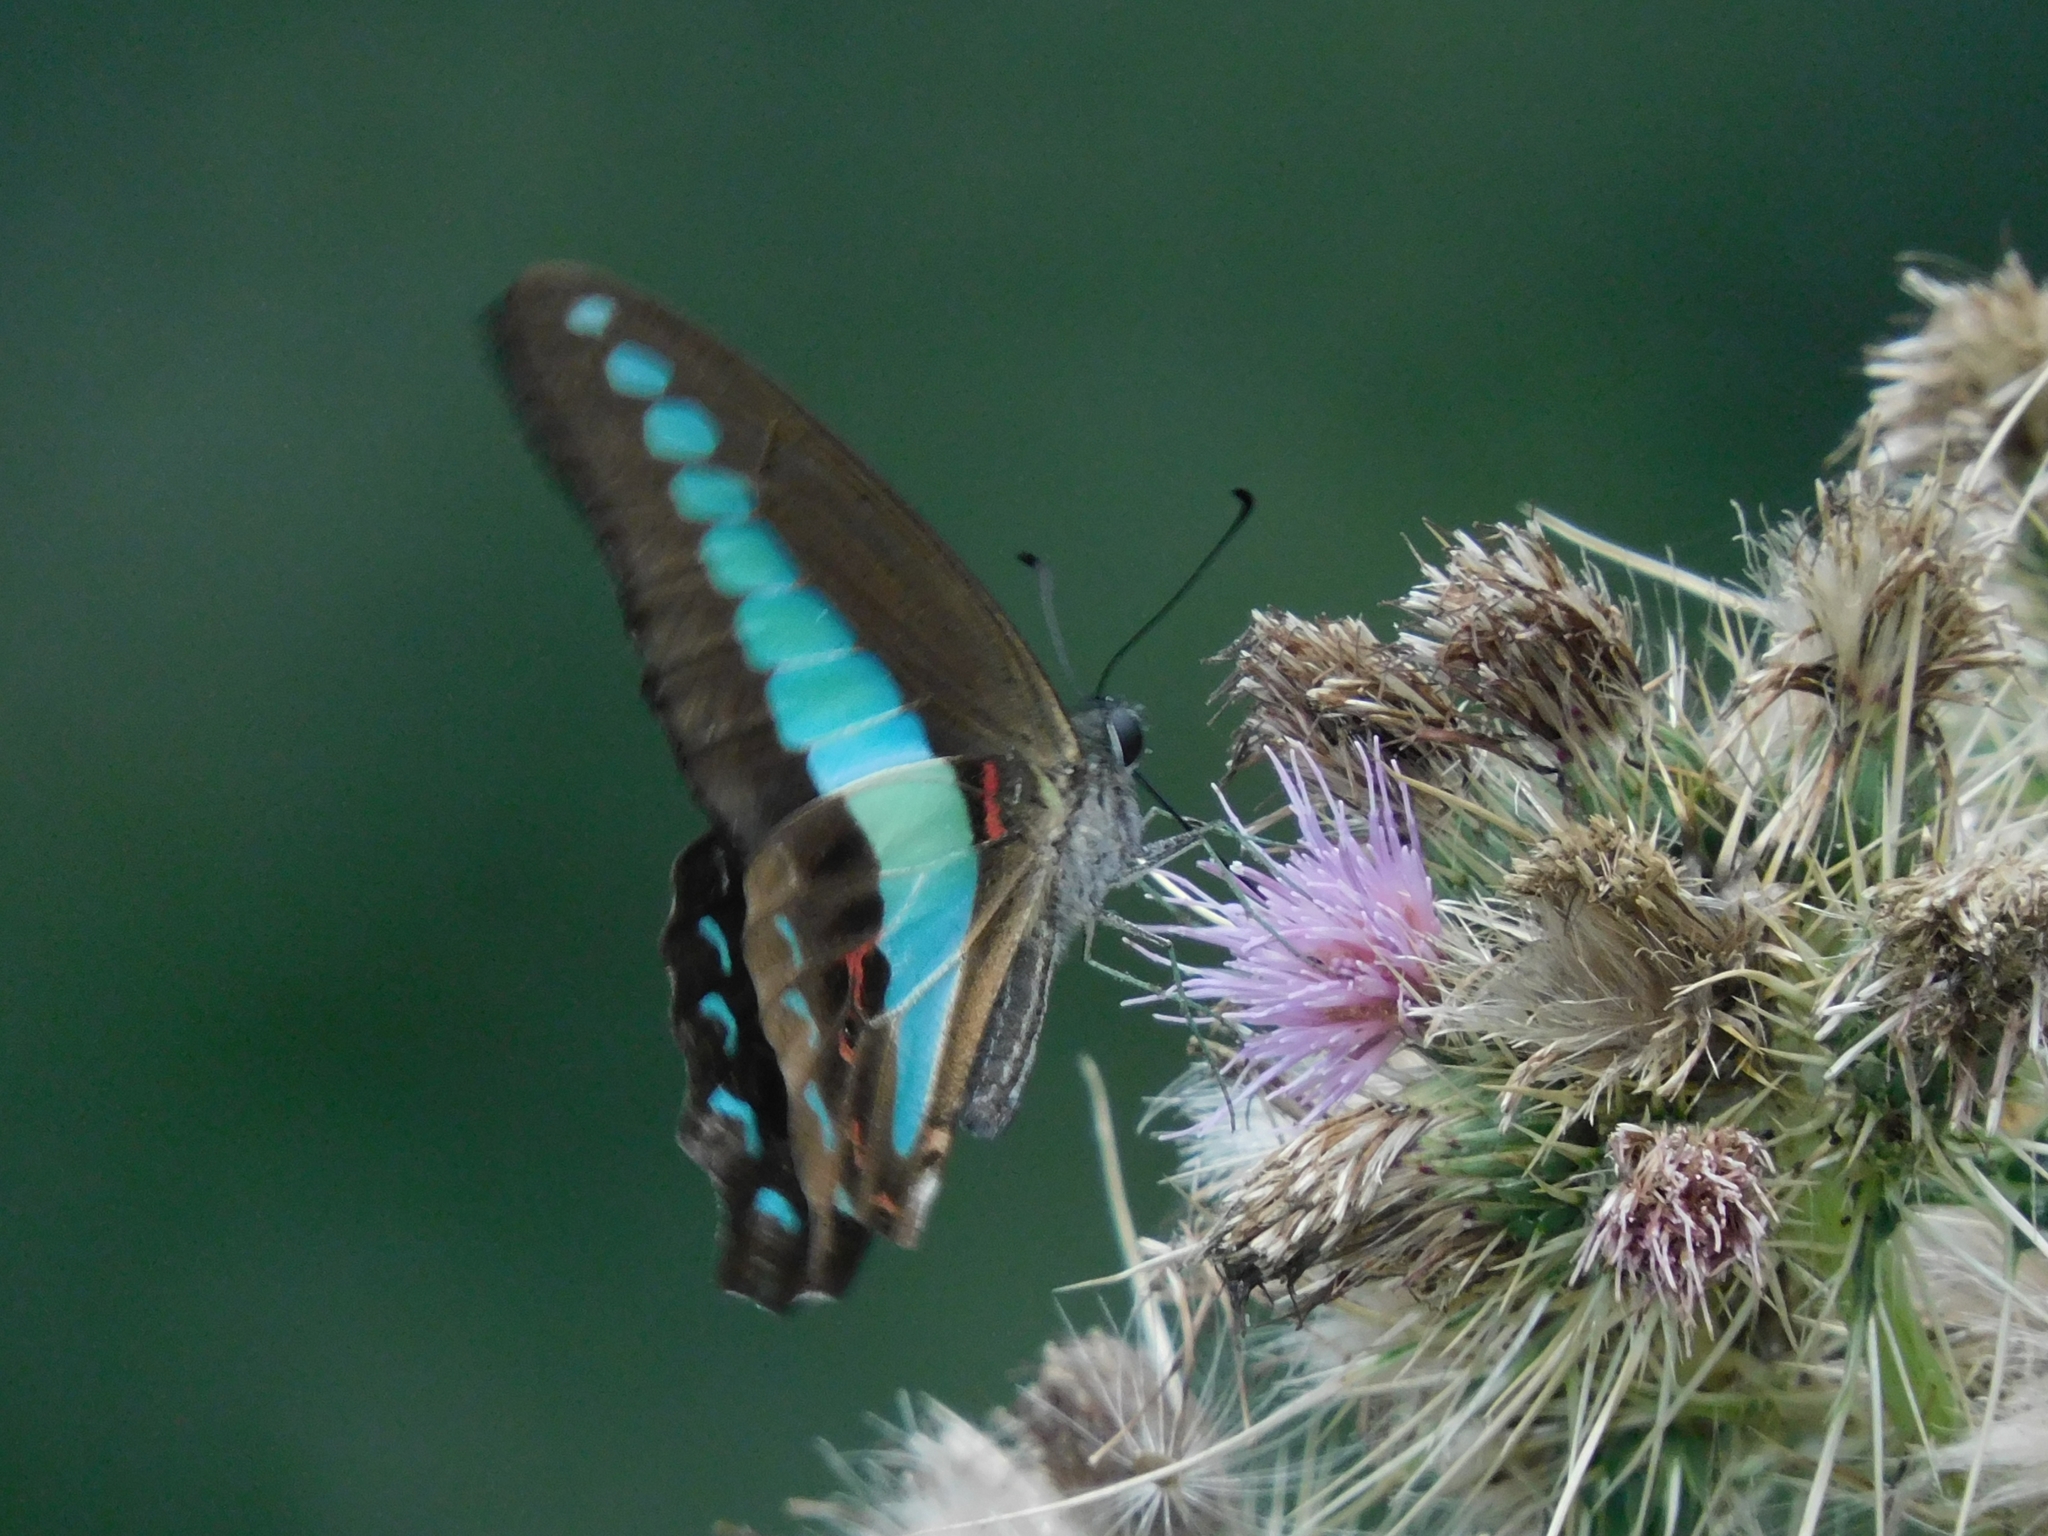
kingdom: Fungi
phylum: Ascomycota
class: Sordariomycetes
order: Microascales
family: Microascaceae
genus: Graphium
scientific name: Graphium sarpedon
